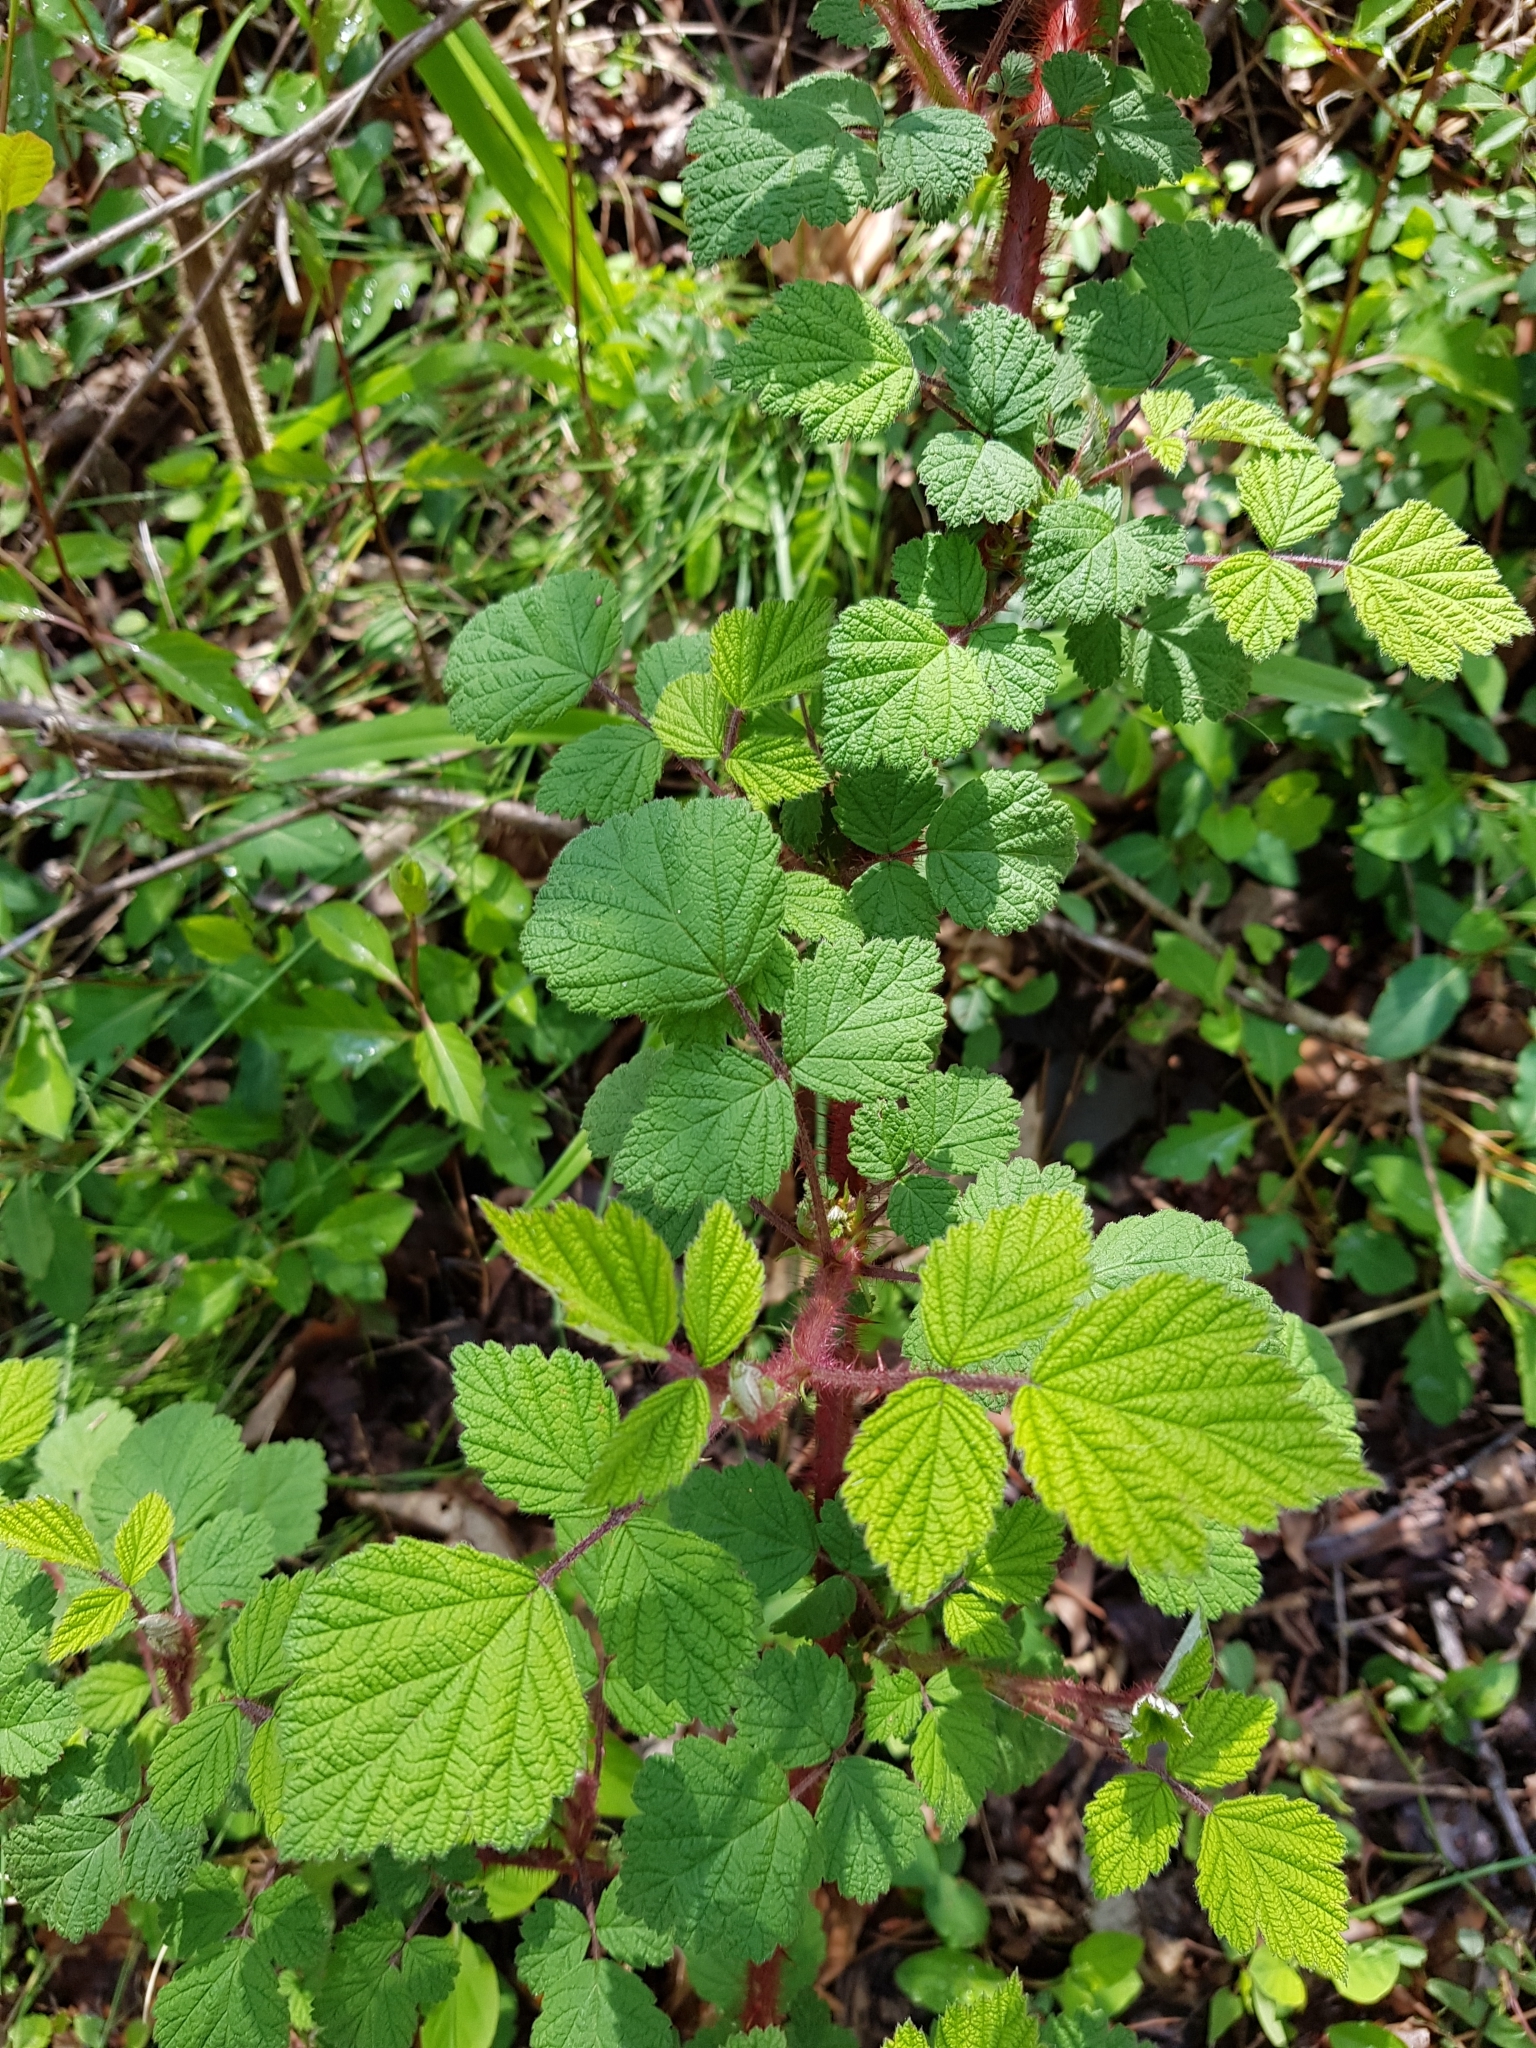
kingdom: Plantae
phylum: Tracheophyta
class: Magnoliopsida
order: Rosales
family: Rosaceae
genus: Rubus
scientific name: Rubus phoenicolasius
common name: Japanese wineberry
